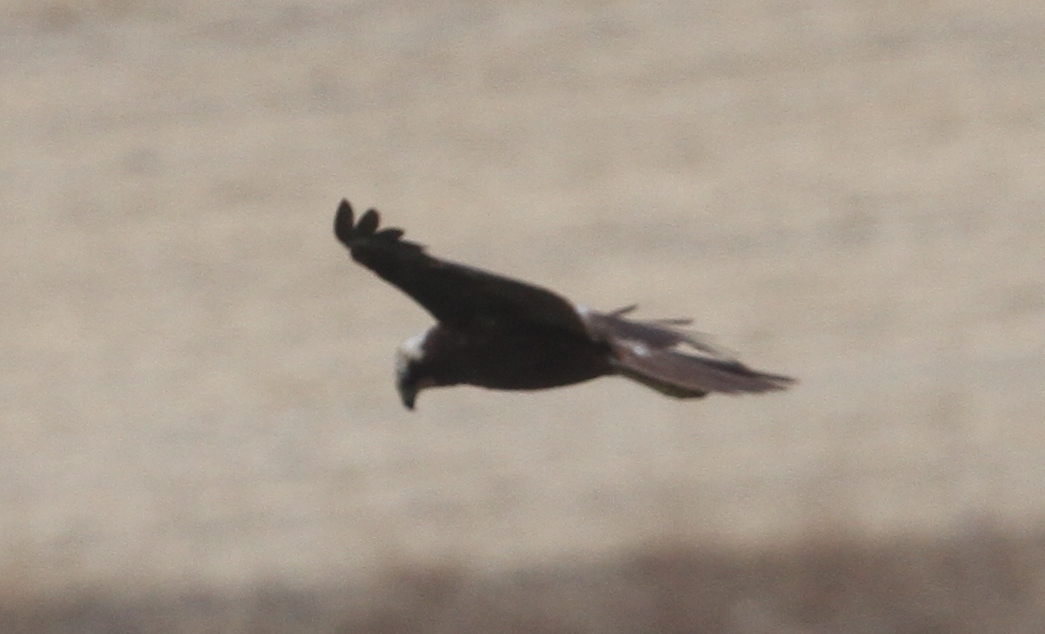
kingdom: Animalia
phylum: Chordata
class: Aves
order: Accipitriformes
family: Accipitridae
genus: Circus
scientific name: Circus aeruginosus
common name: Western marsh harrier
